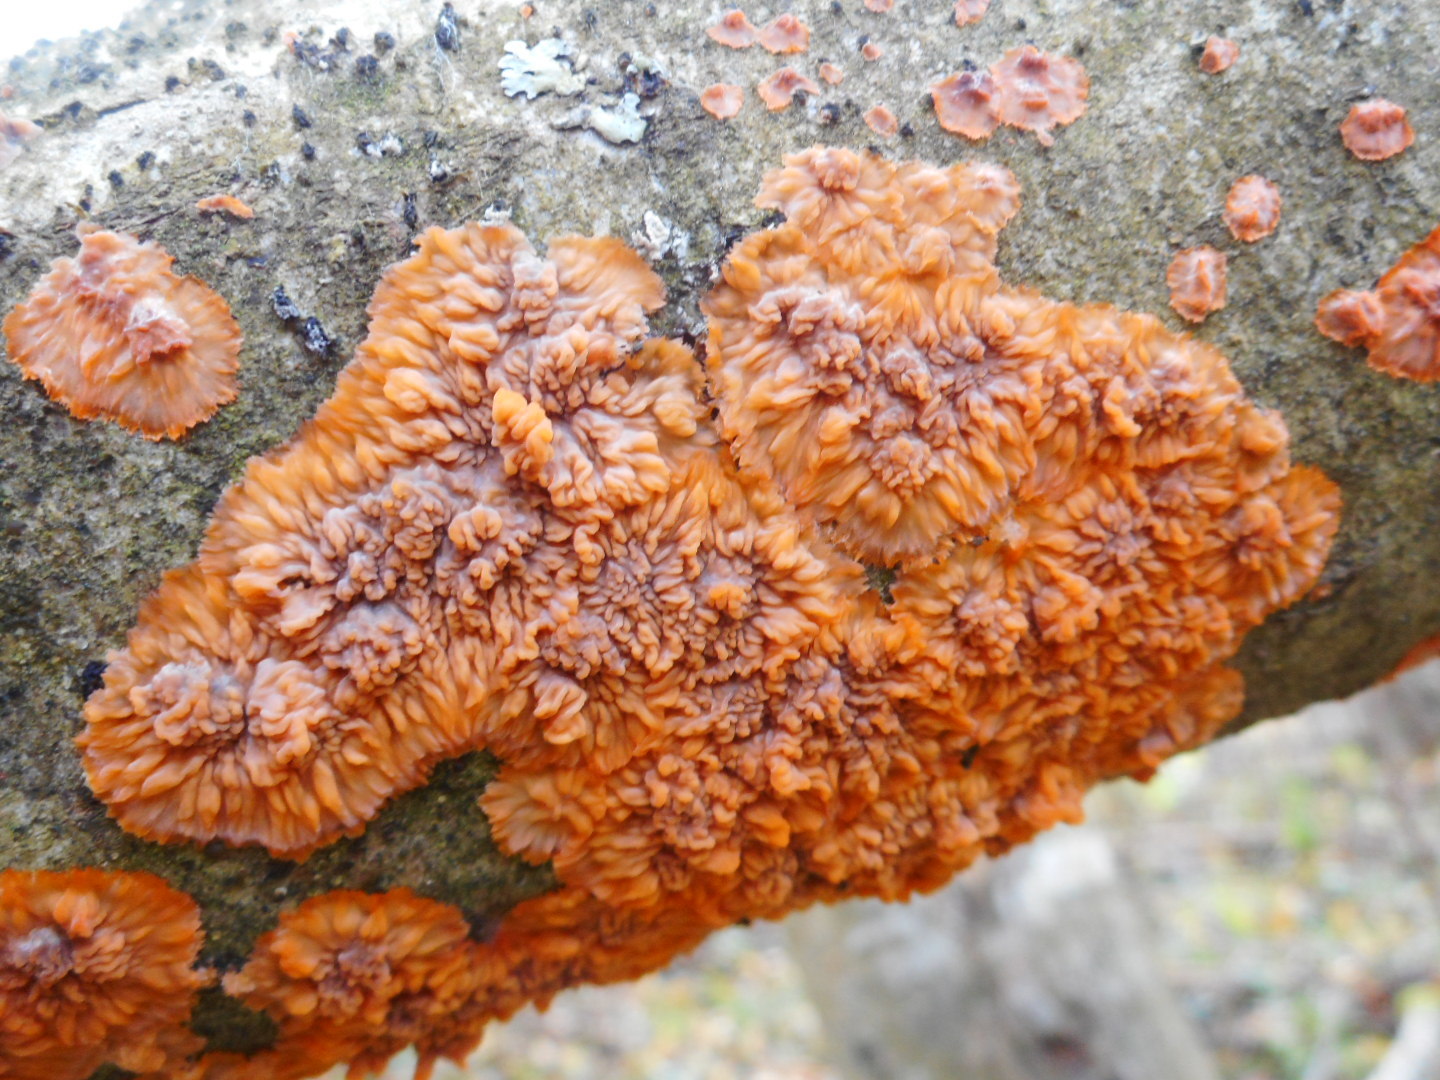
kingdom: Fungi
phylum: Basidiomycota
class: Agaricomycetes
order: Polyporales
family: Meruliaceae
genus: Phlebia
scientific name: Phlebia radiata
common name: Wrinkled crust
